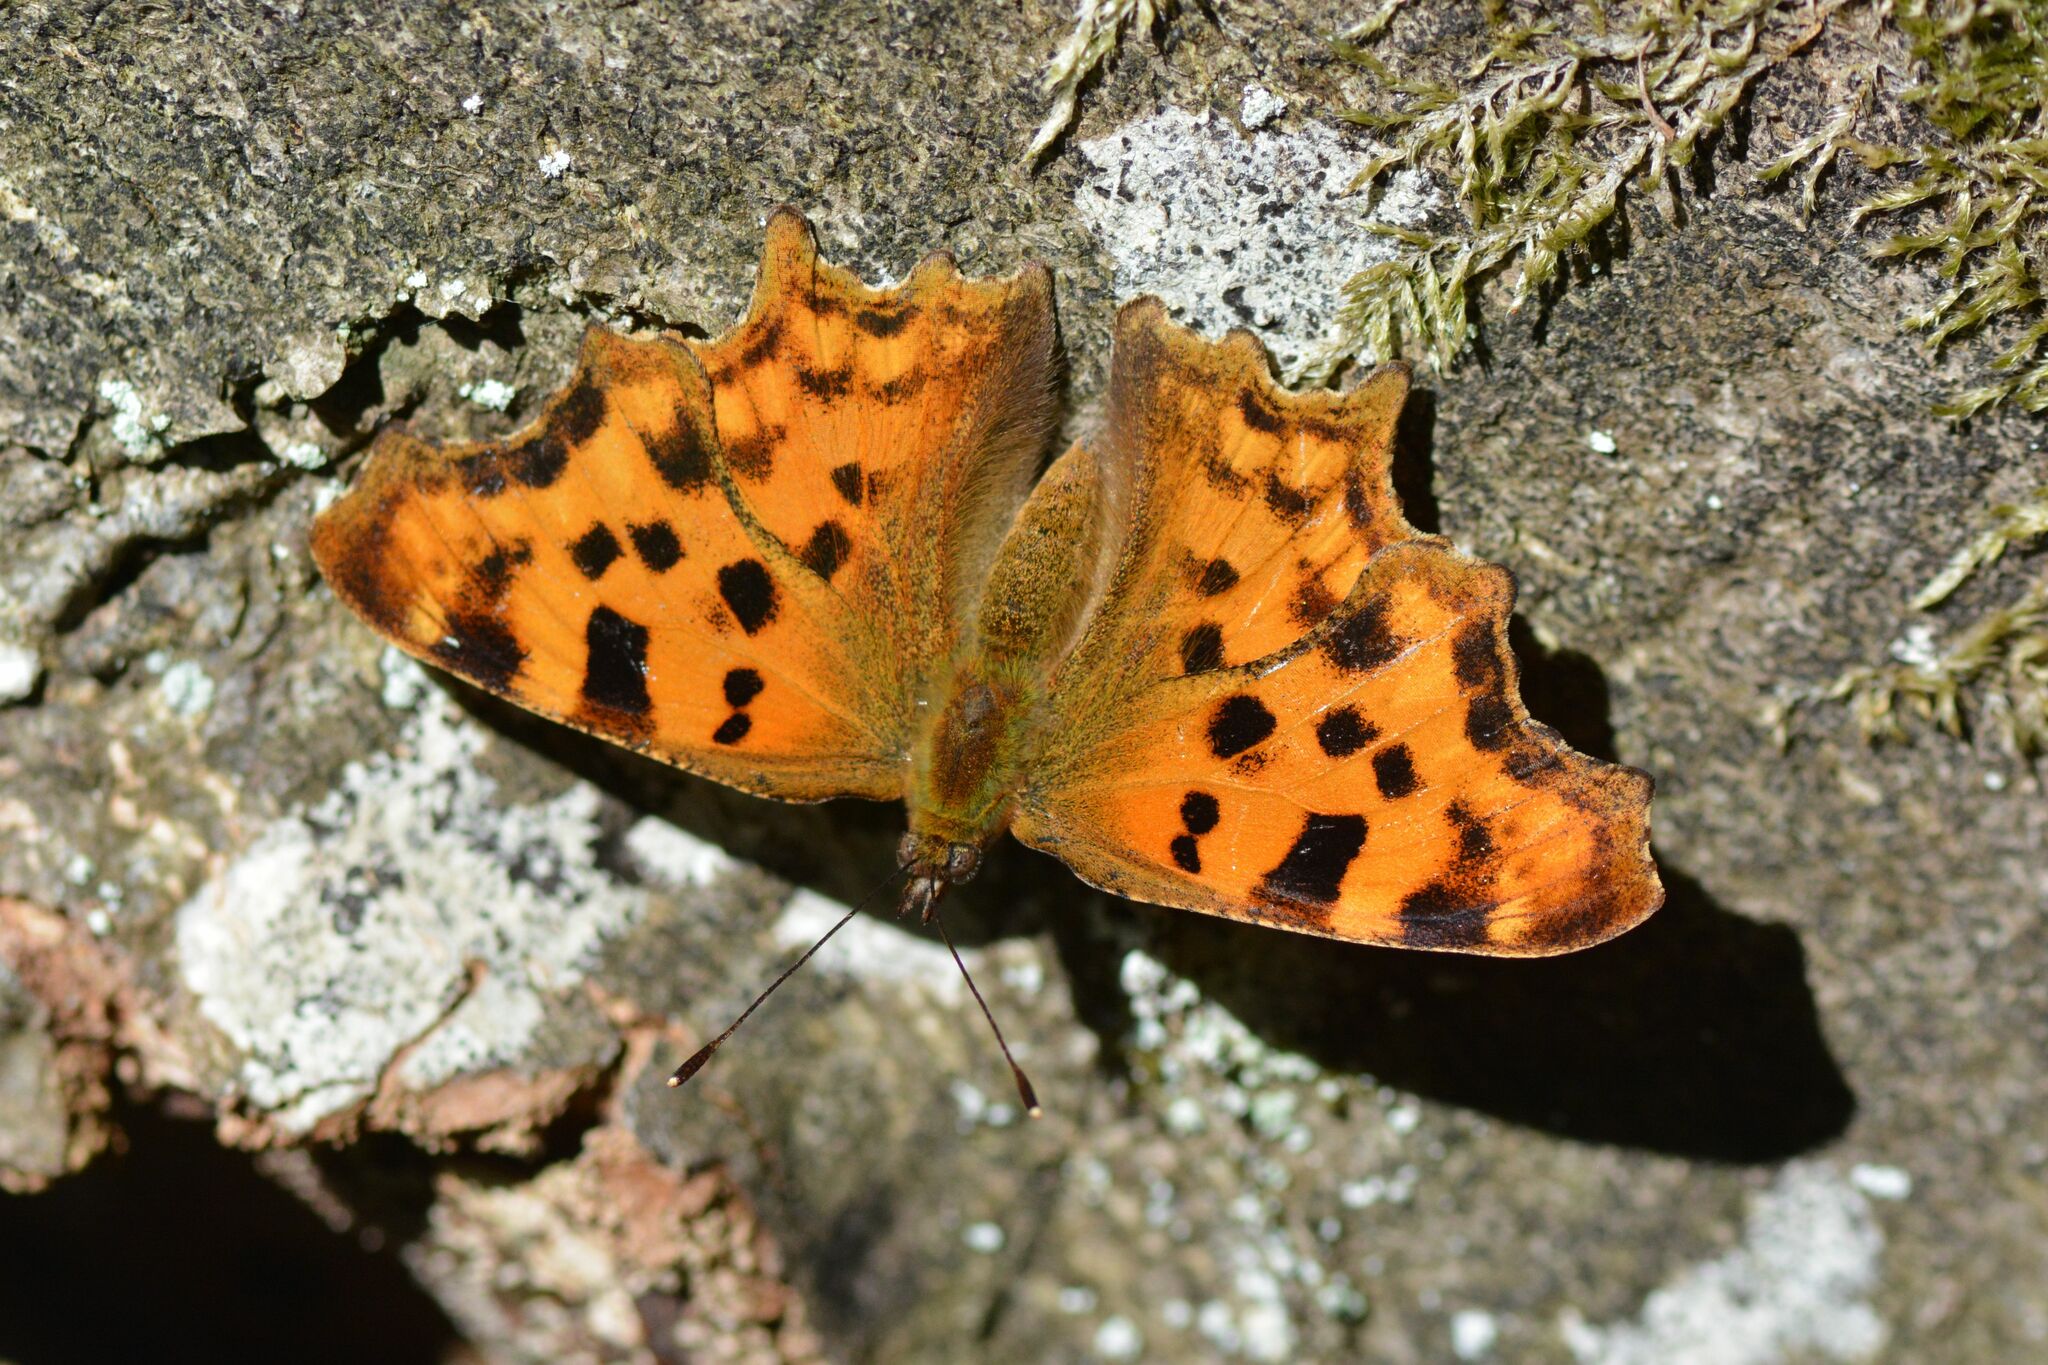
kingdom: Animalia
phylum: Arthropoda
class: Insecta
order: Lepidoptera
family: Nymphalidae
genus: Polygonia
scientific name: Polygonia c-album
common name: Comma
